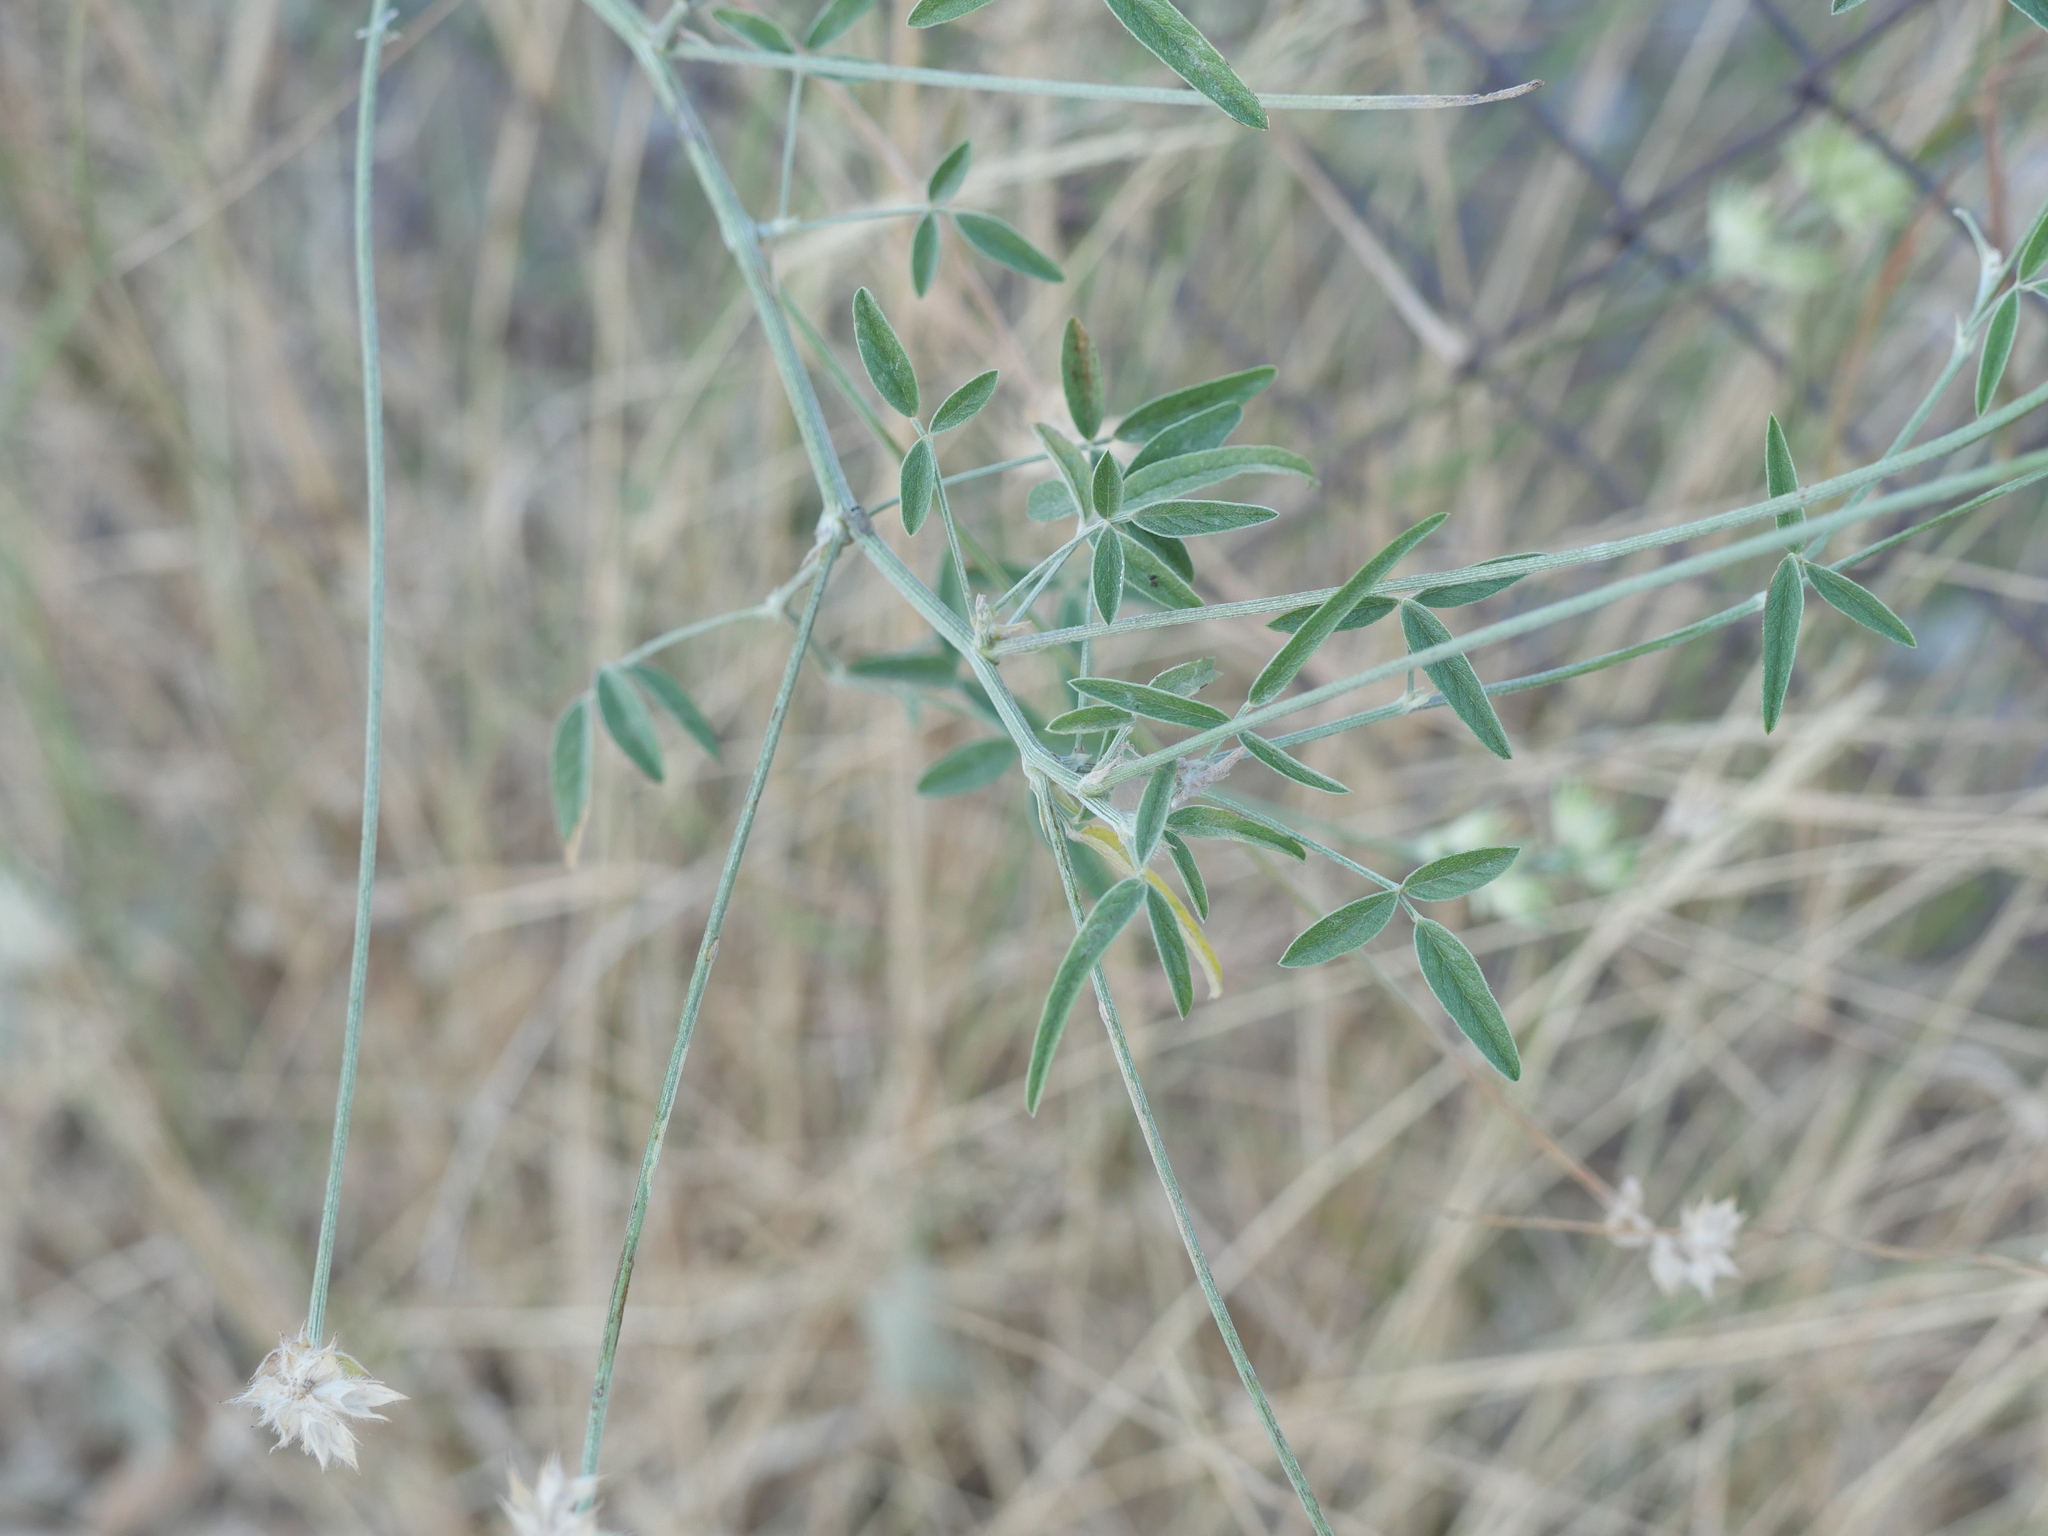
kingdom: Plantae
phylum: Tracheophyta
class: Magnoliopsida
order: Fabales
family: Fabaceae
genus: Bituminaria
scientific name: Bituminaria bituminosa
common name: Arabian pea
